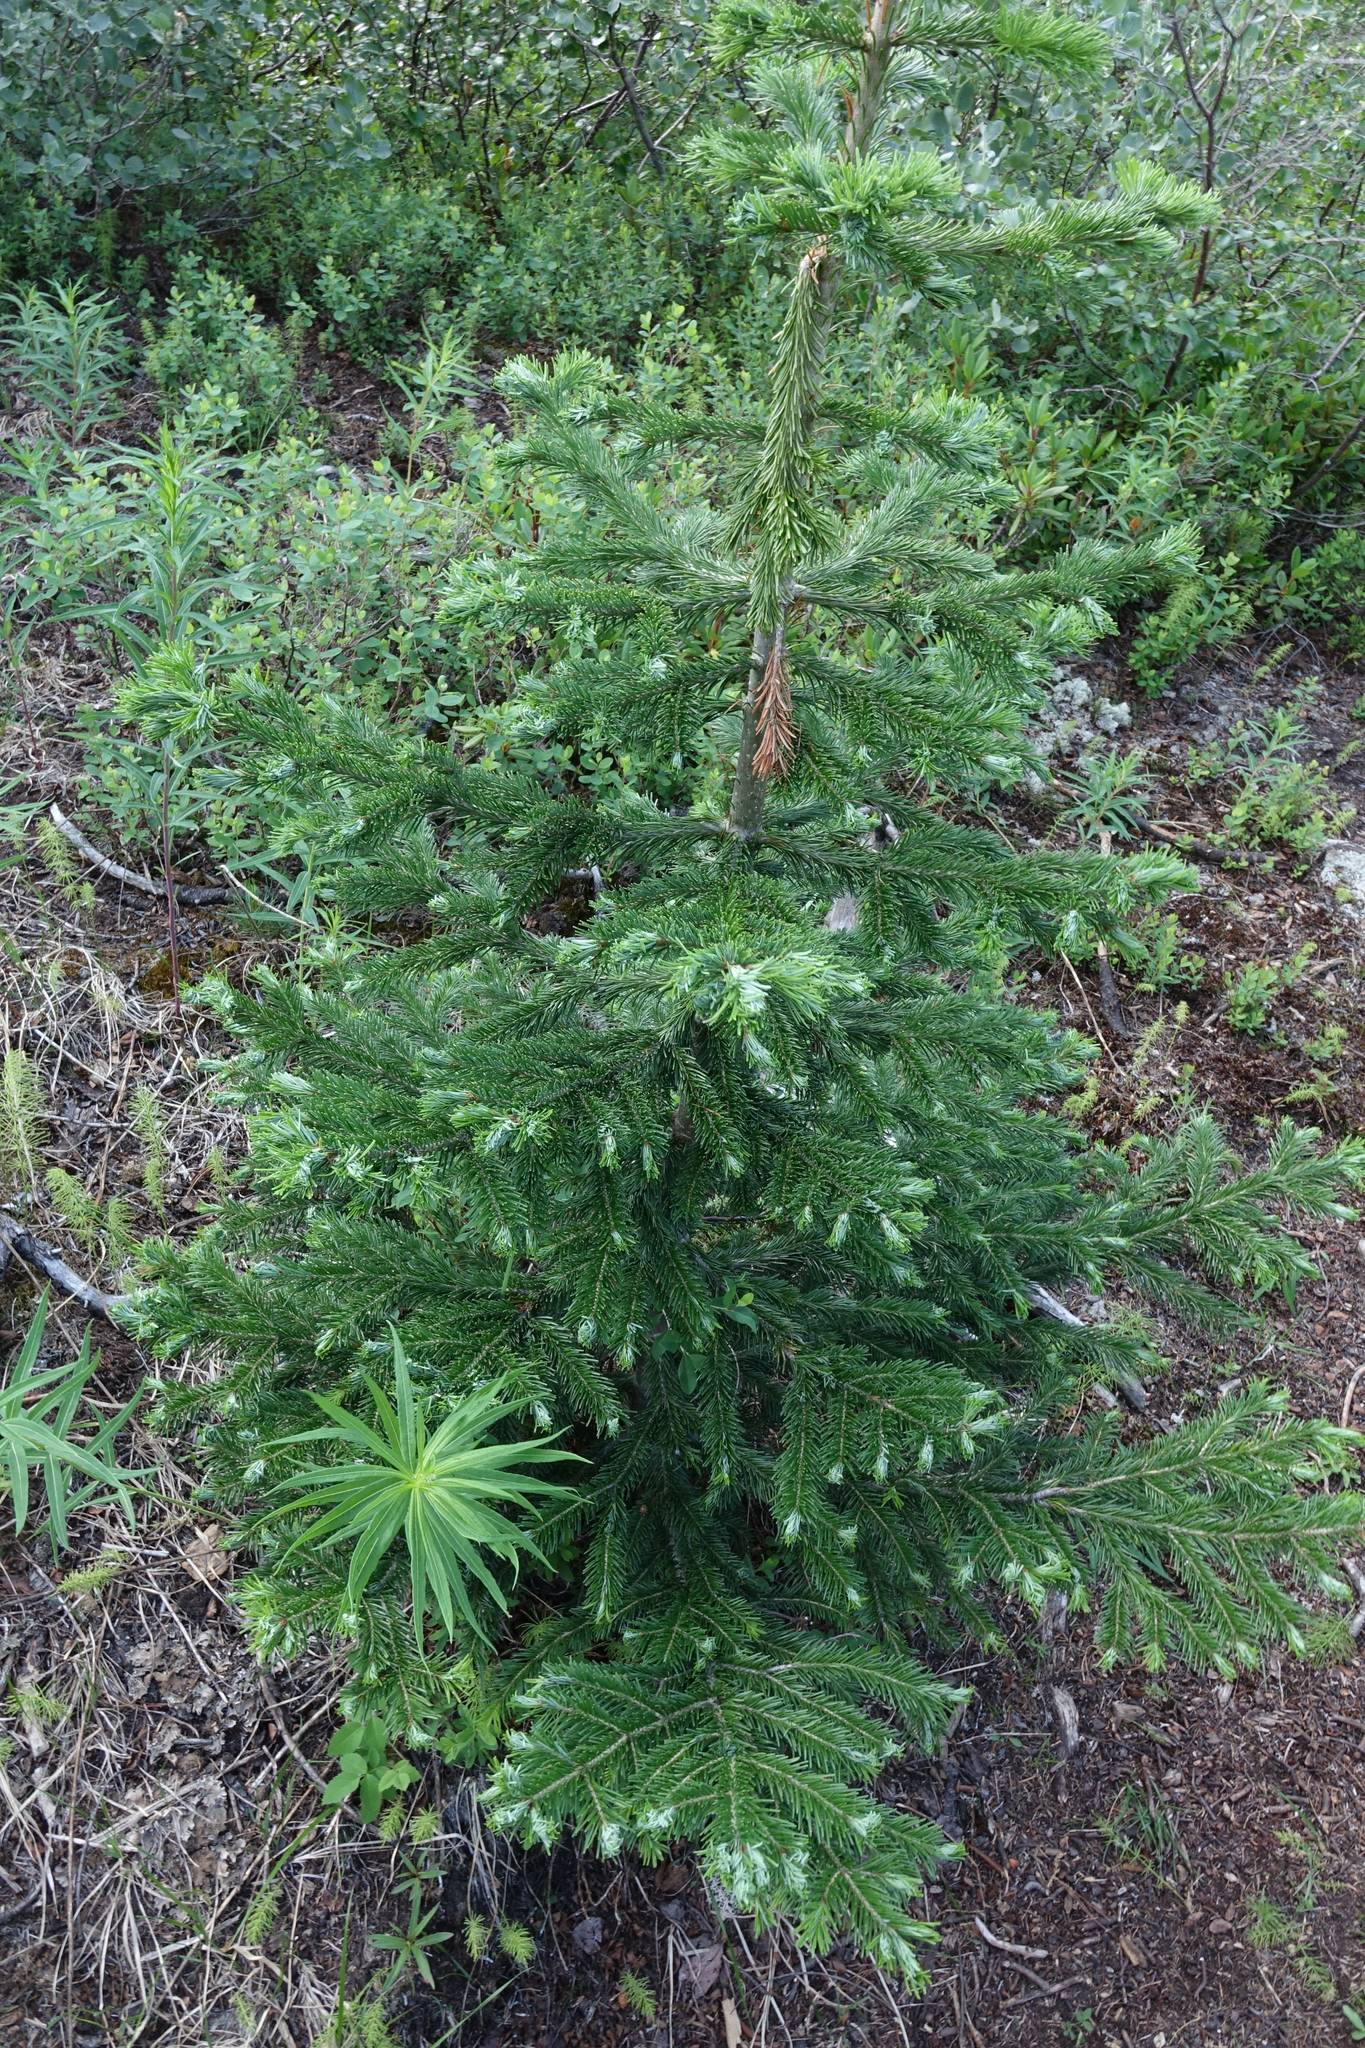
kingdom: Plantae
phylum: Tracheophyta
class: Pinopsida
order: Pinales
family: Pinaceae
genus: Abies
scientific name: Abies sibirica
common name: Siberian fir
